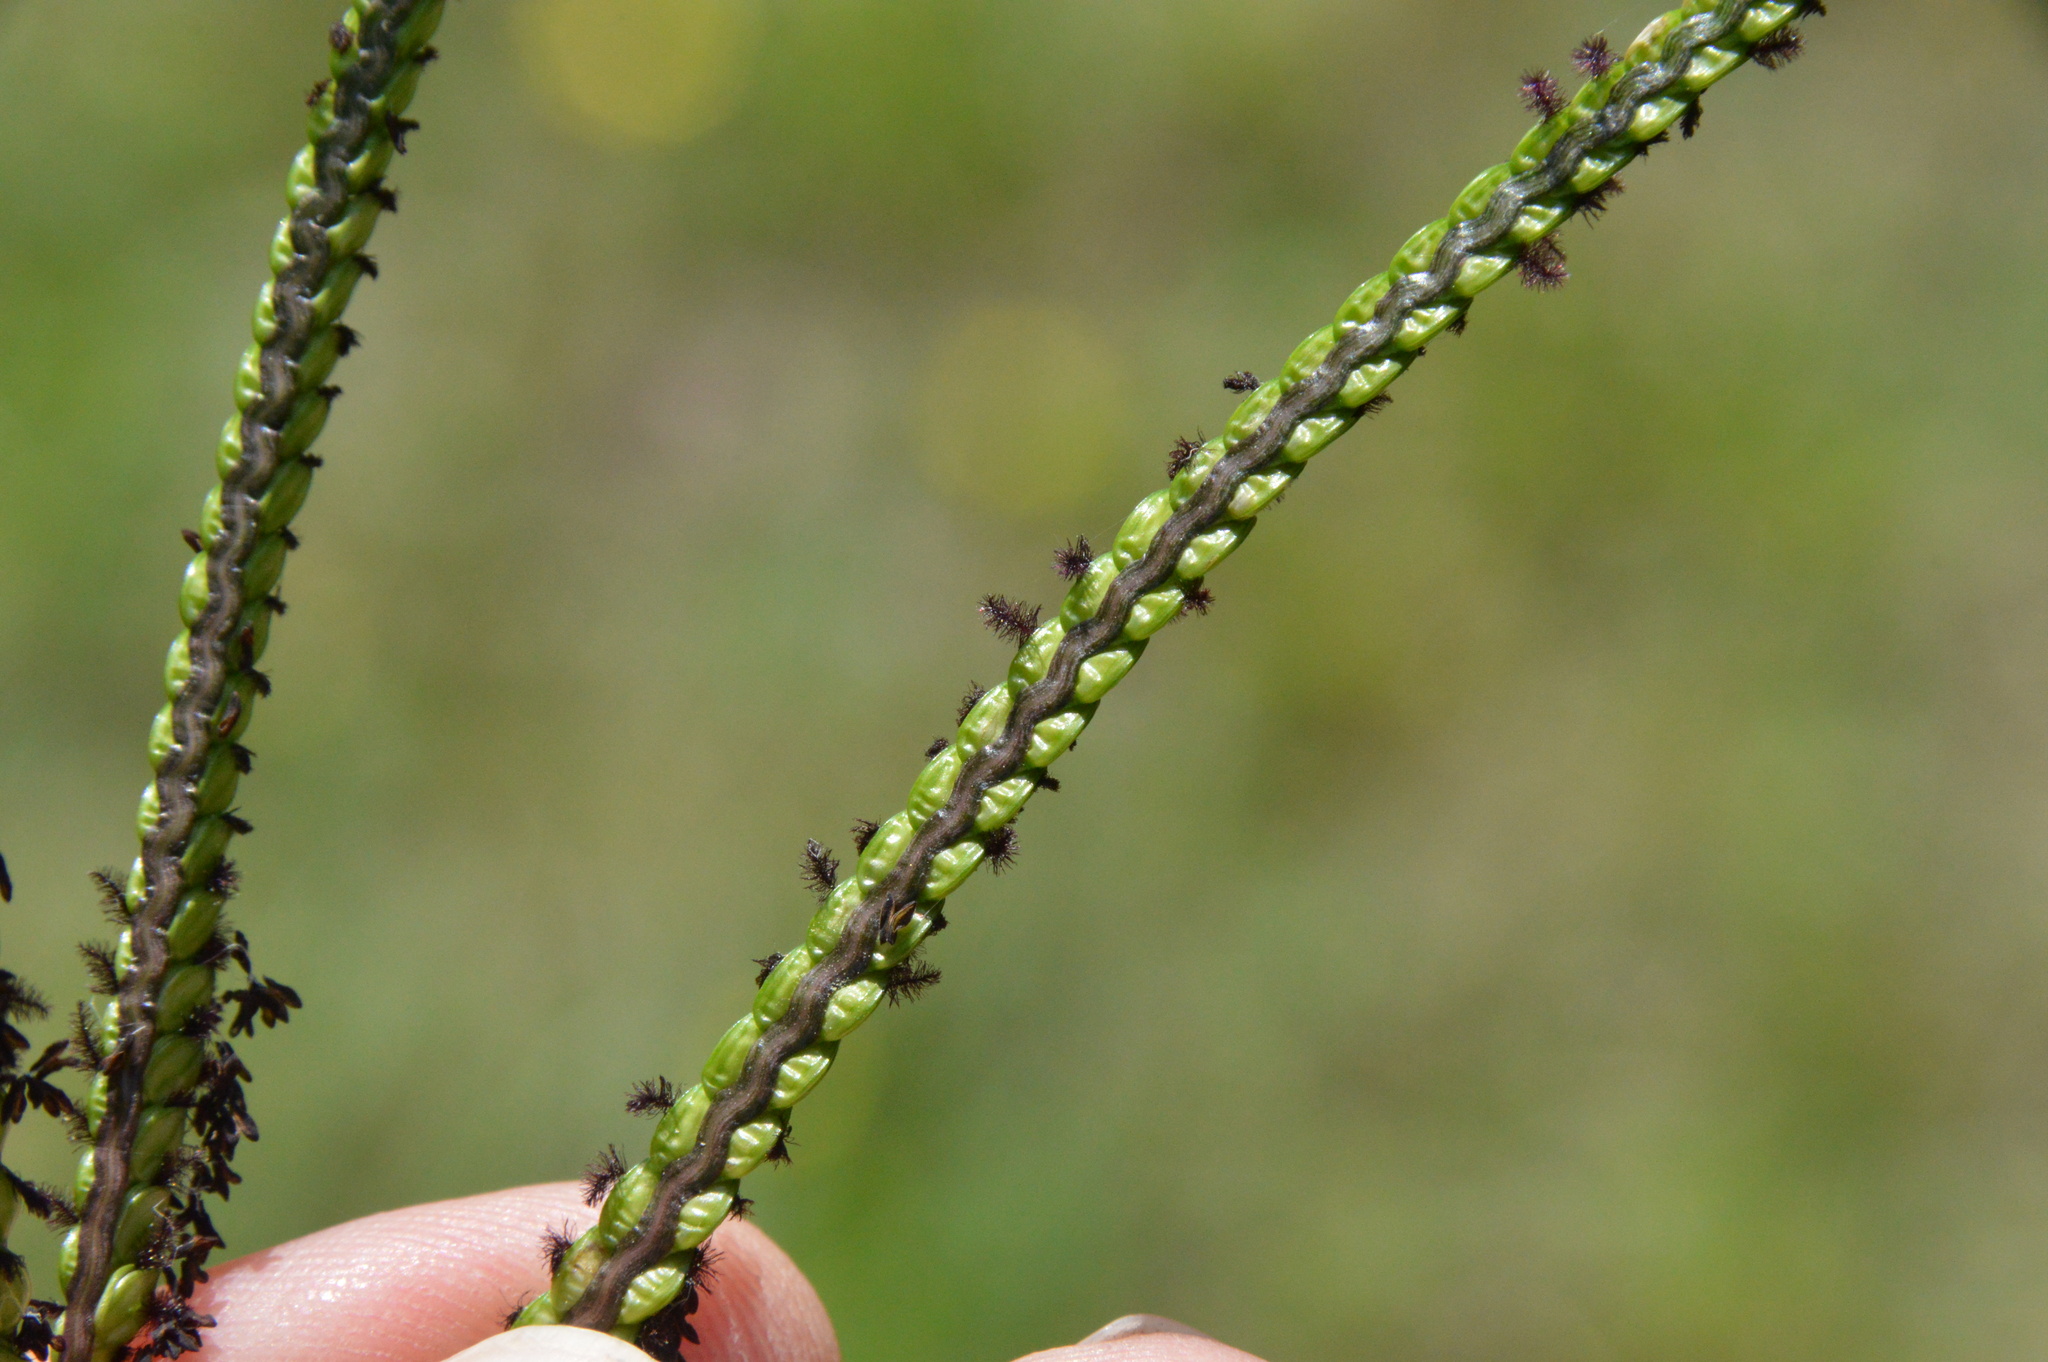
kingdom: Plantae
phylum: Tracheophyta
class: Liliopsida
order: Poales
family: Poaceae
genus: Paspalum
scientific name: Paspalum notatum
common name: Bahiagrass
